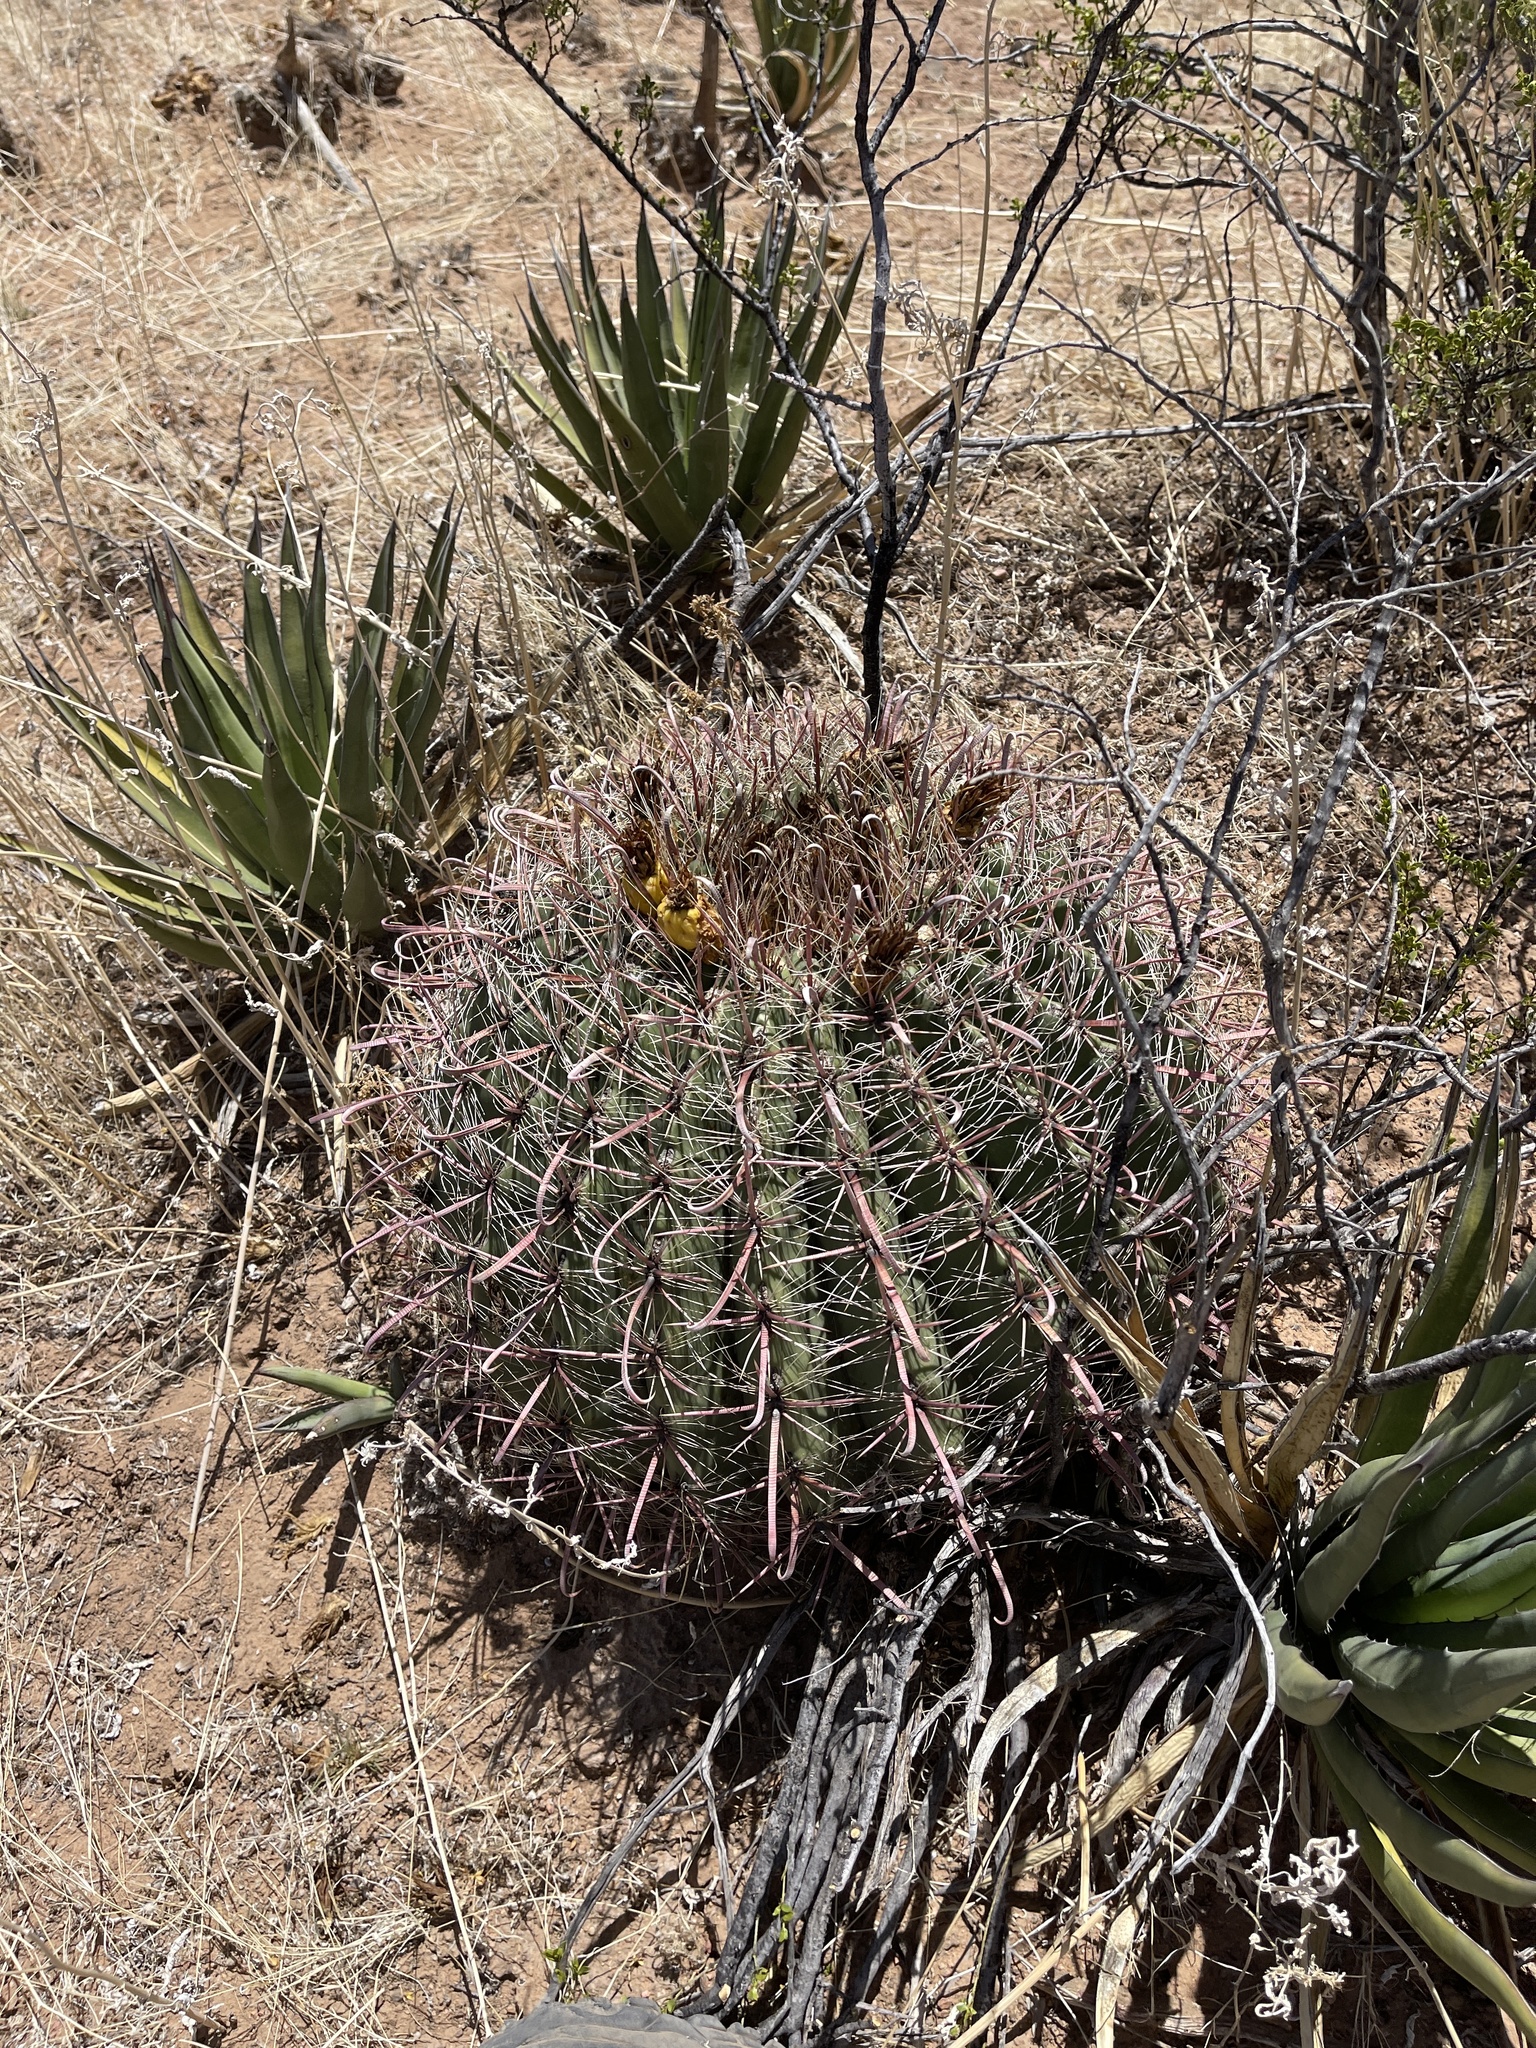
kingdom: Plantae
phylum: Tracheophyta
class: Magnoliopsida
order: Caryophyllales
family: Cactaceae
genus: Ferocactus
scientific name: Ferocactus wislizeni
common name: Candy barrel cactus
